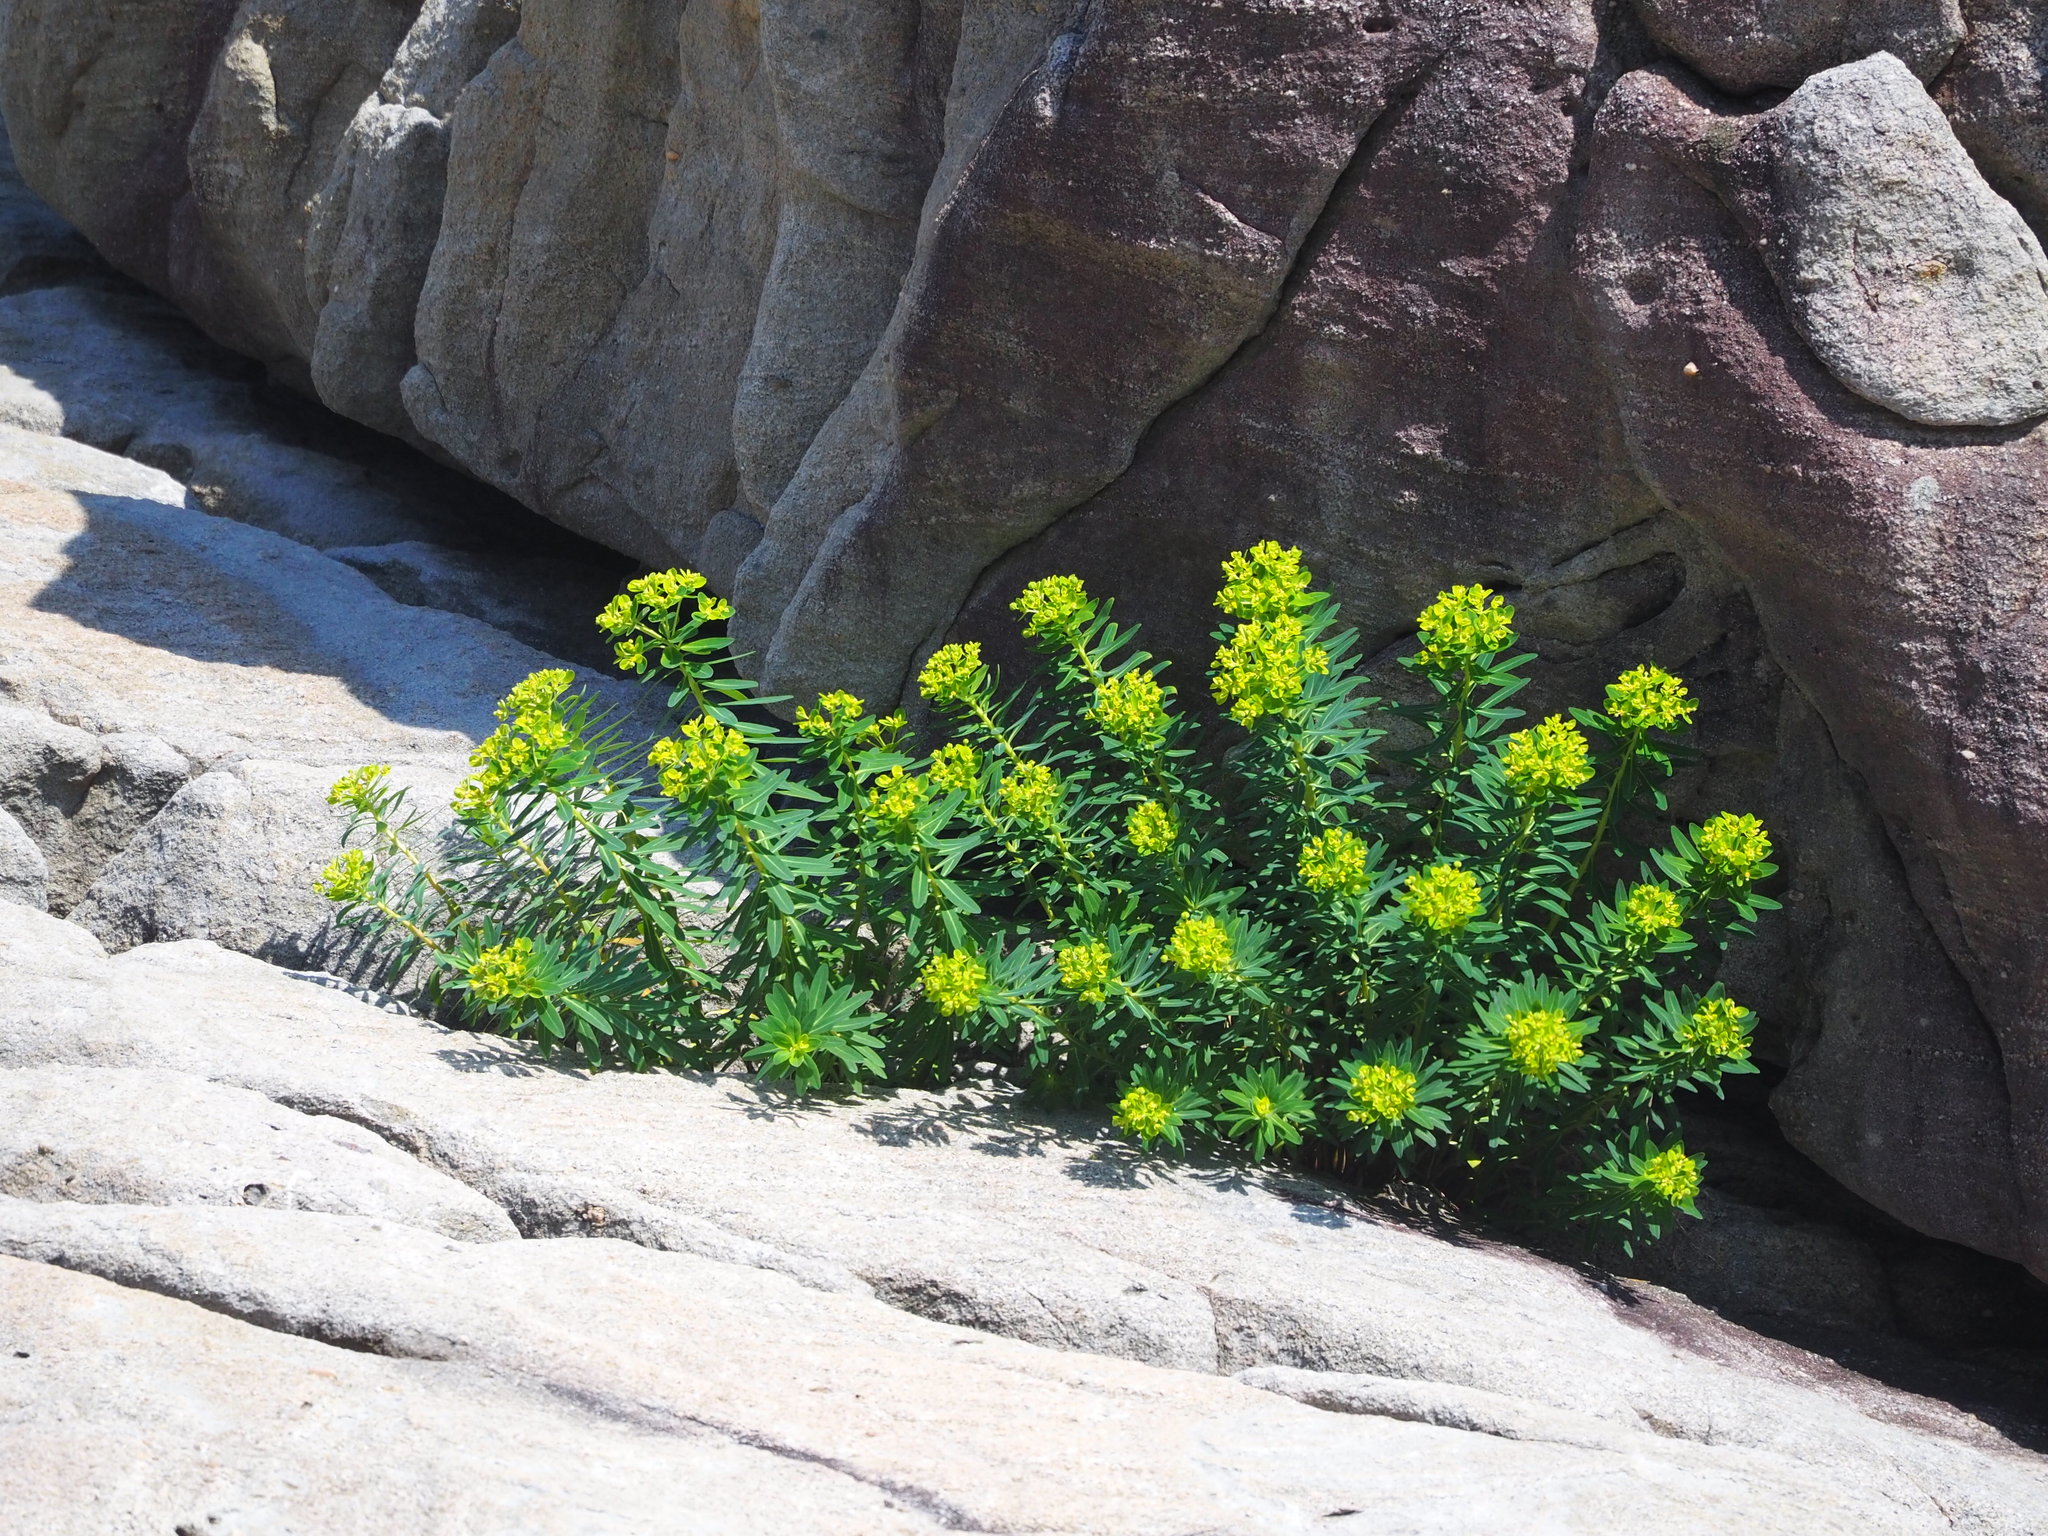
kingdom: Plantae
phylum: Tracheophyta
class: Magnoliopsida
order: Malpighiales
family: Euphorbiaceae
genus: Euphorbia
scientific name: Euphorbia jolkinii
